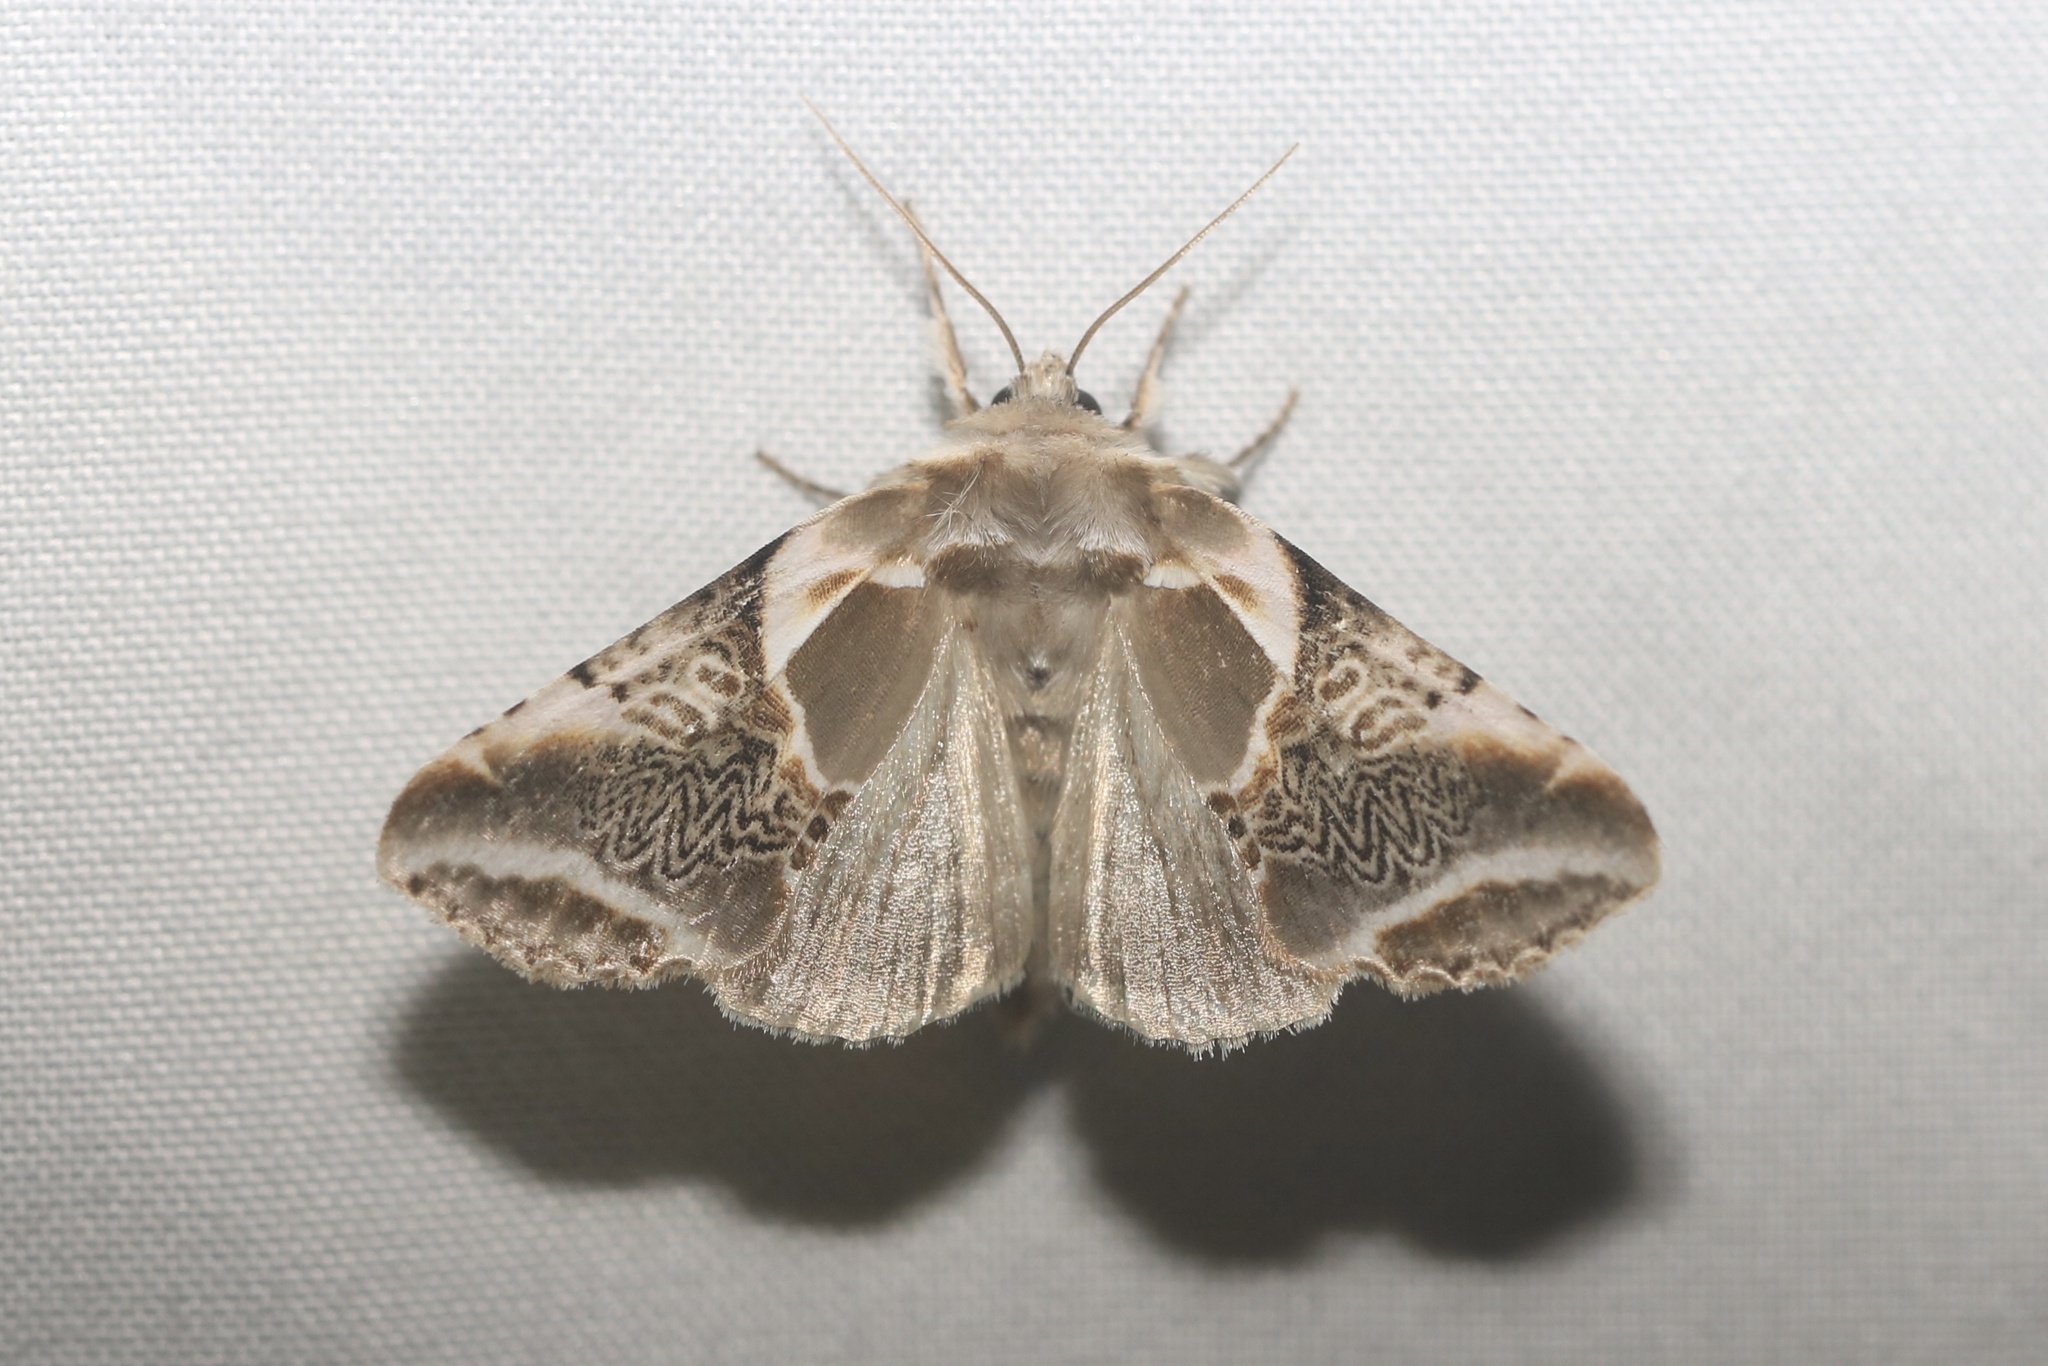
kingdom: Animalia
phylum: Arthropoda
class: Insecta
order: Lepidoptera
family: Drepanidae
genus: Habrosyne
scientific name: Habrosyne scripta
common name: Lettered habrosyne moth
